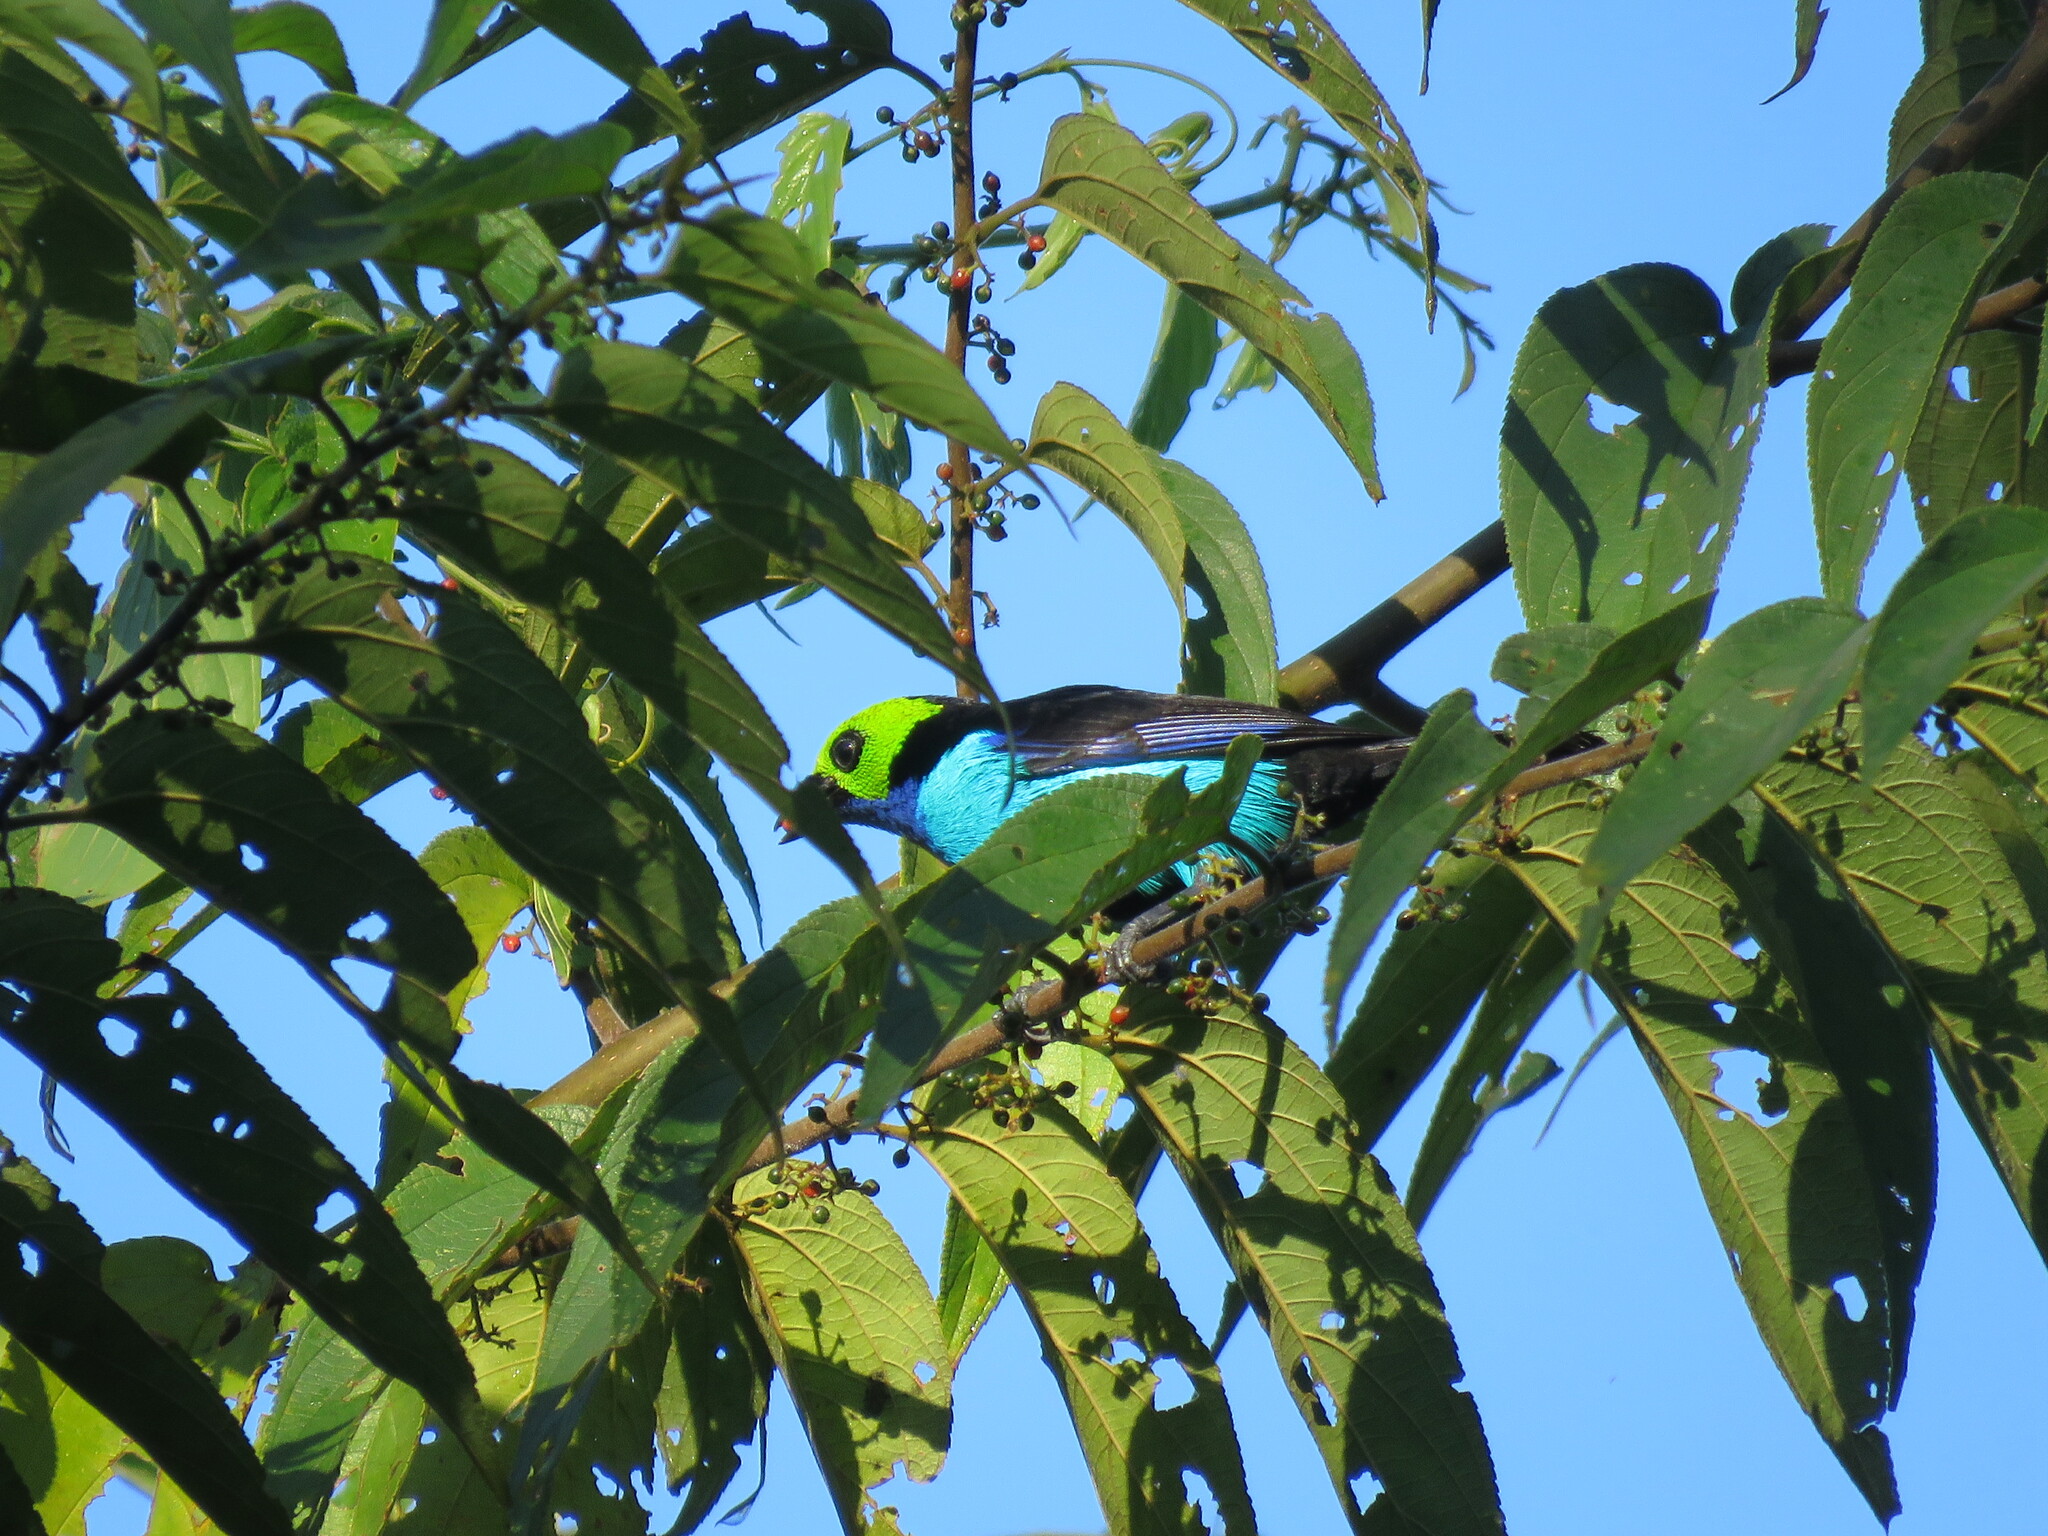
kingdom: Animalia
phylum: Chordata
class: Aves
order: Passeriformes
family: Thraupidae
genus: Tangara
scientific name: Tangara chilensis
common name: Paradise tanager
